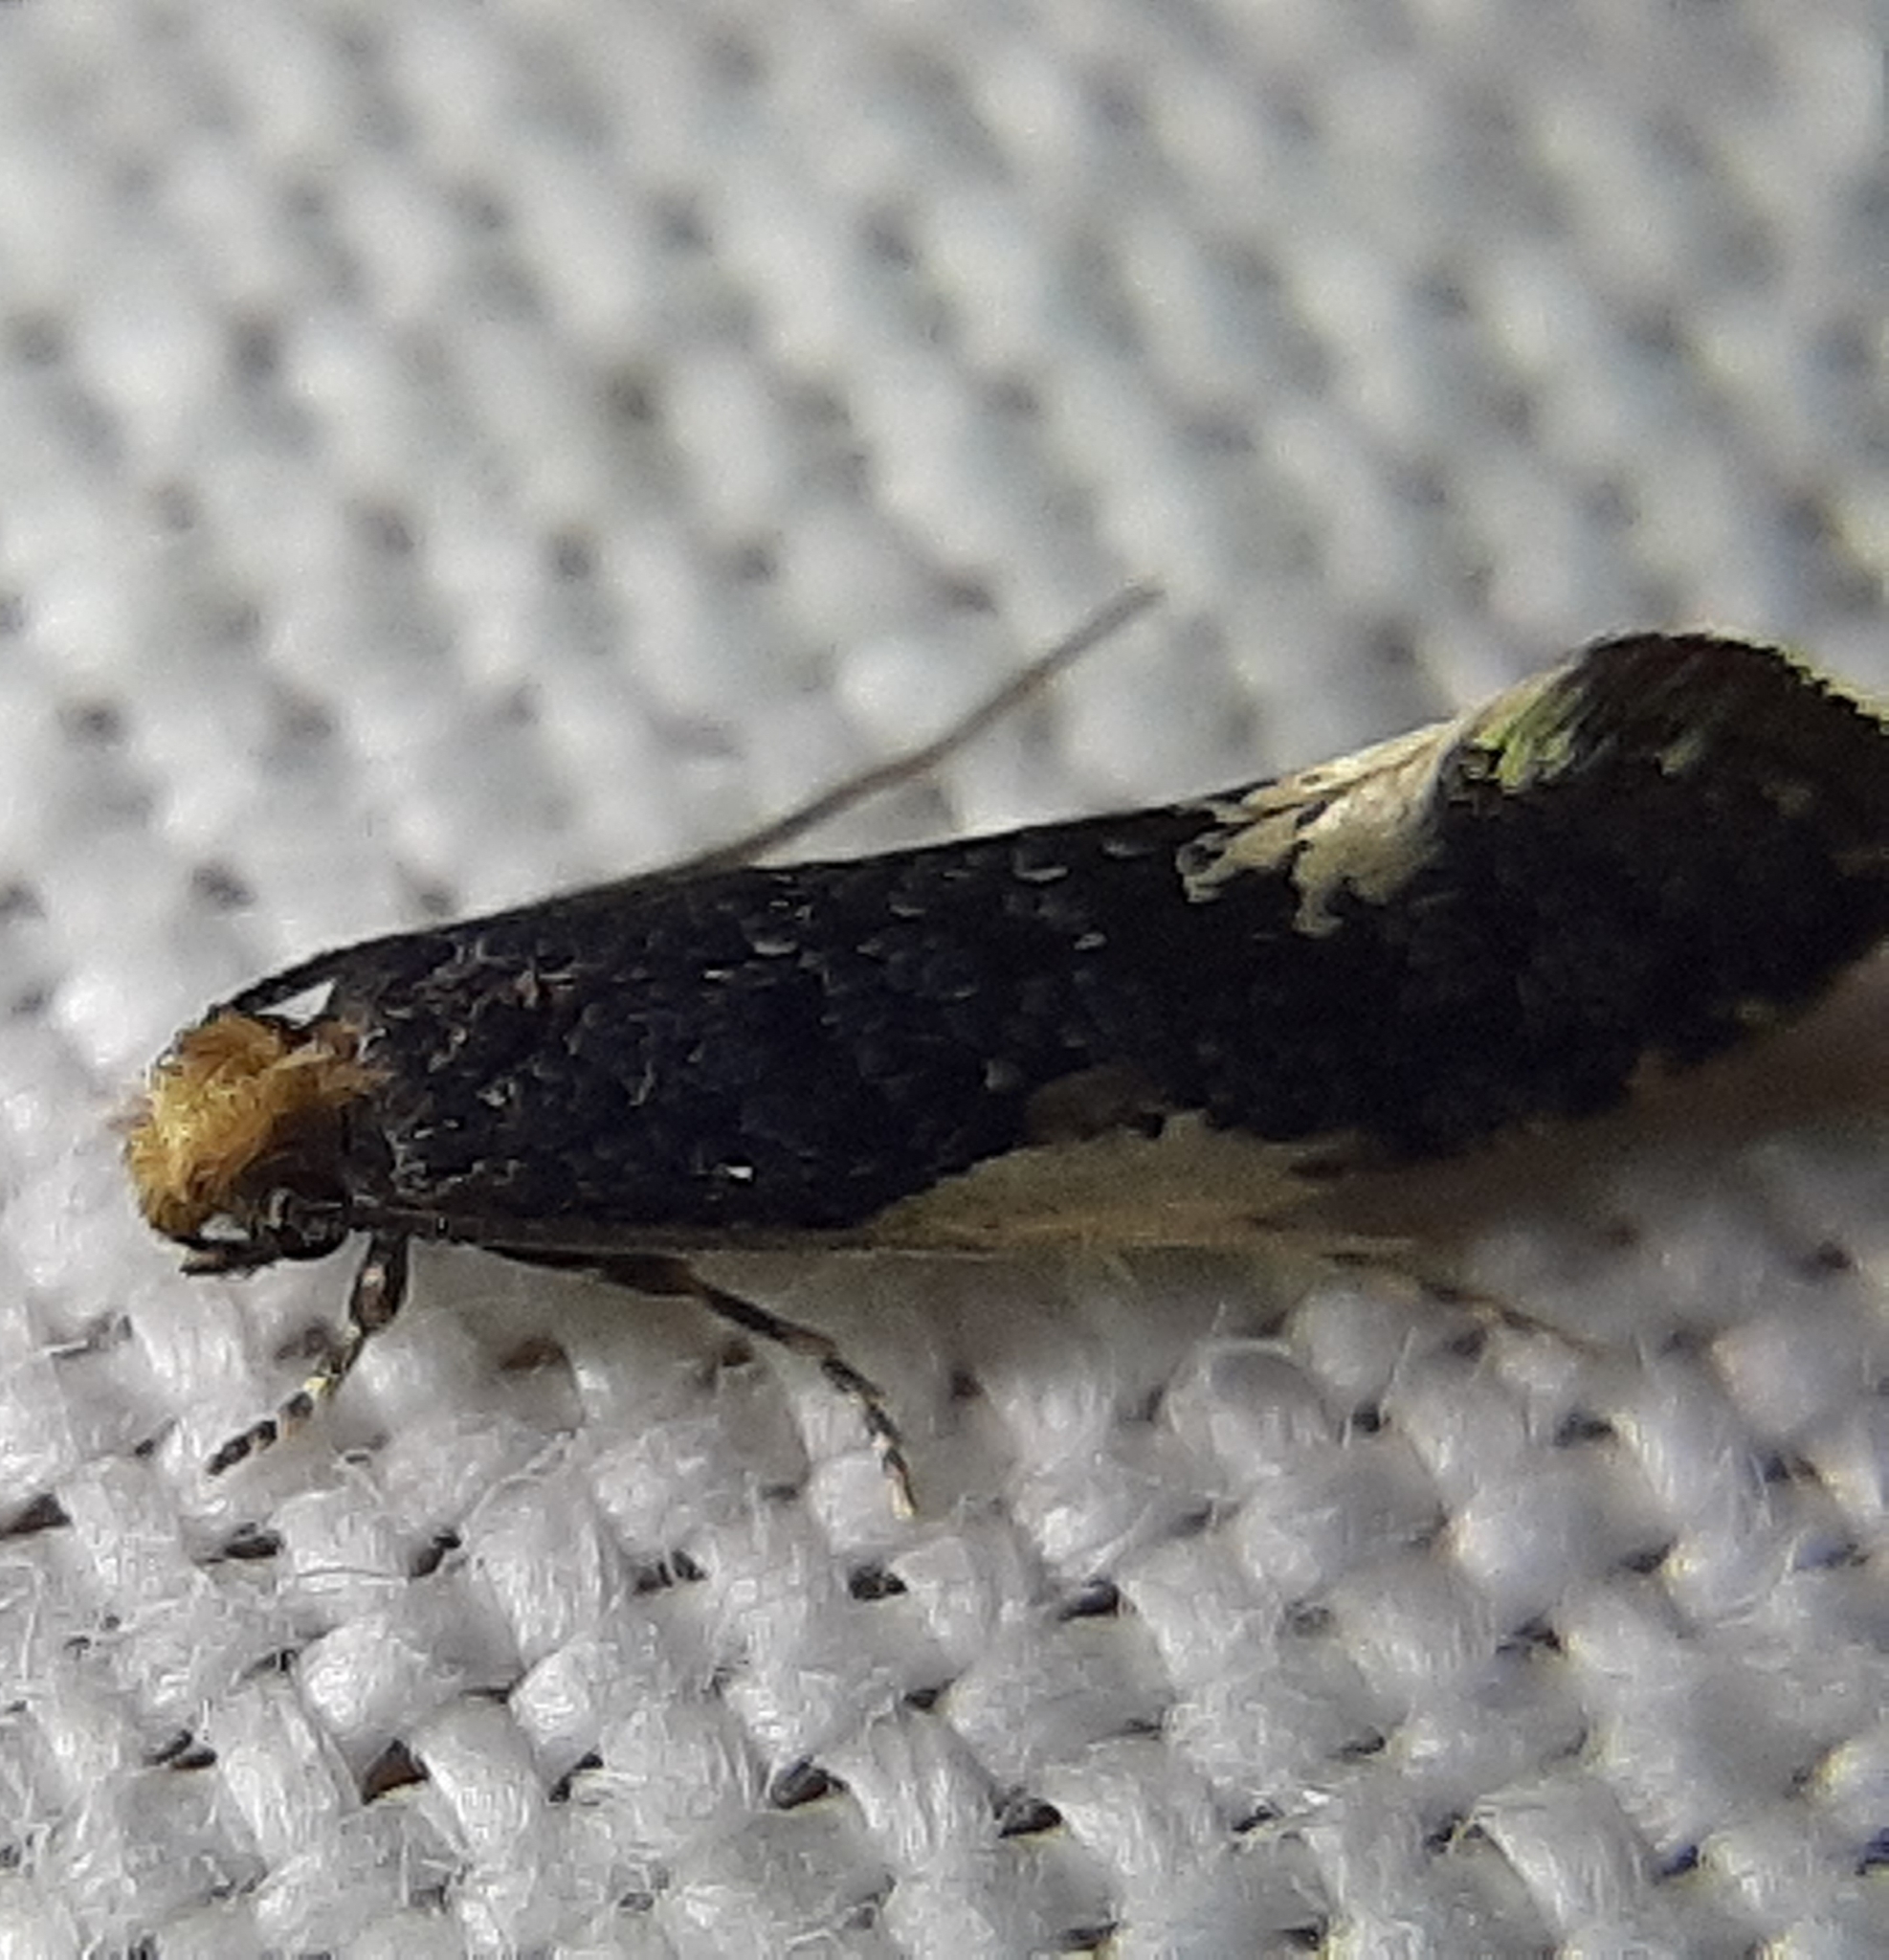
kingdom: Animalia
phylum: Arthropoda
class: Insecta
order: Lepidoptera
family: Tineidae
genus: Monopis
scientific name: Monopis spilotella
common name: Orange-headed monopis
